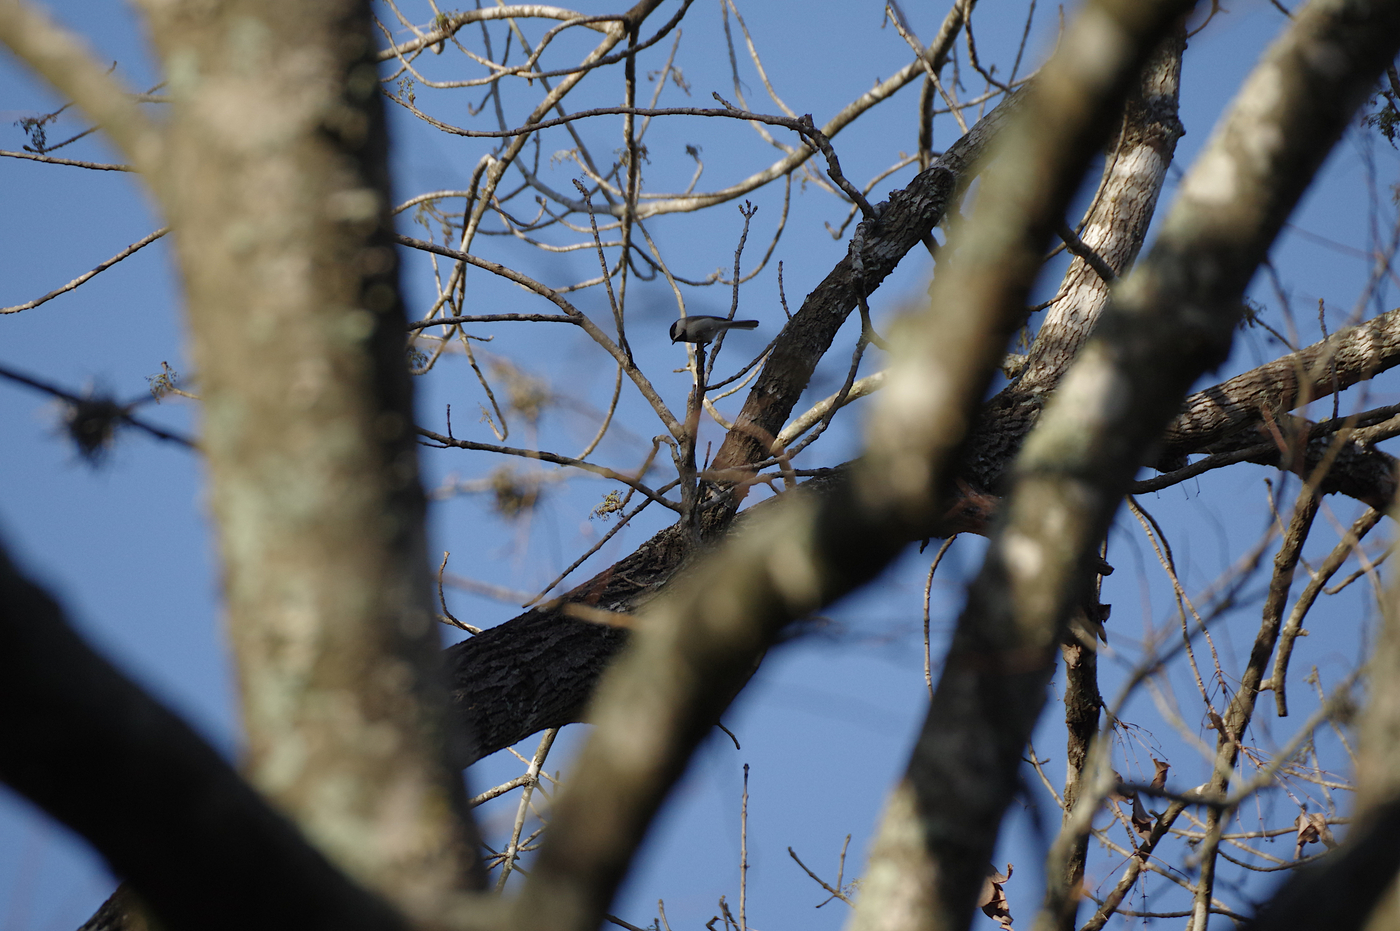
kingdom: Animalia
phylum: Chordata
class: Aves
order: Passeriformes
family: Paridae
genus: Poecile
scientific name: Poecile carolinensis
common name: Carolina chickadee
